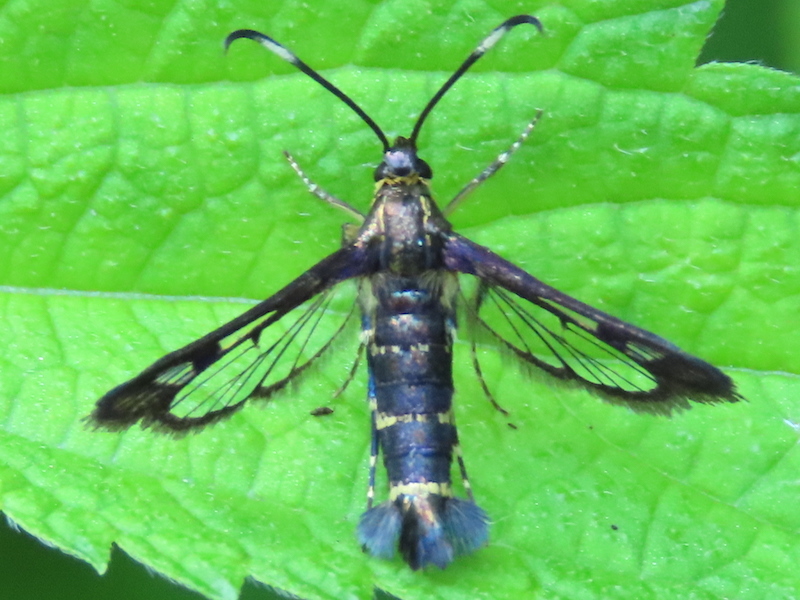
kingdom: Animalia
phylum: Arthropoda
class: Insecta
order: Lepidoptera
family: Sesiidae
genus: Carmenta
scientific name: Carmenta ithacae
